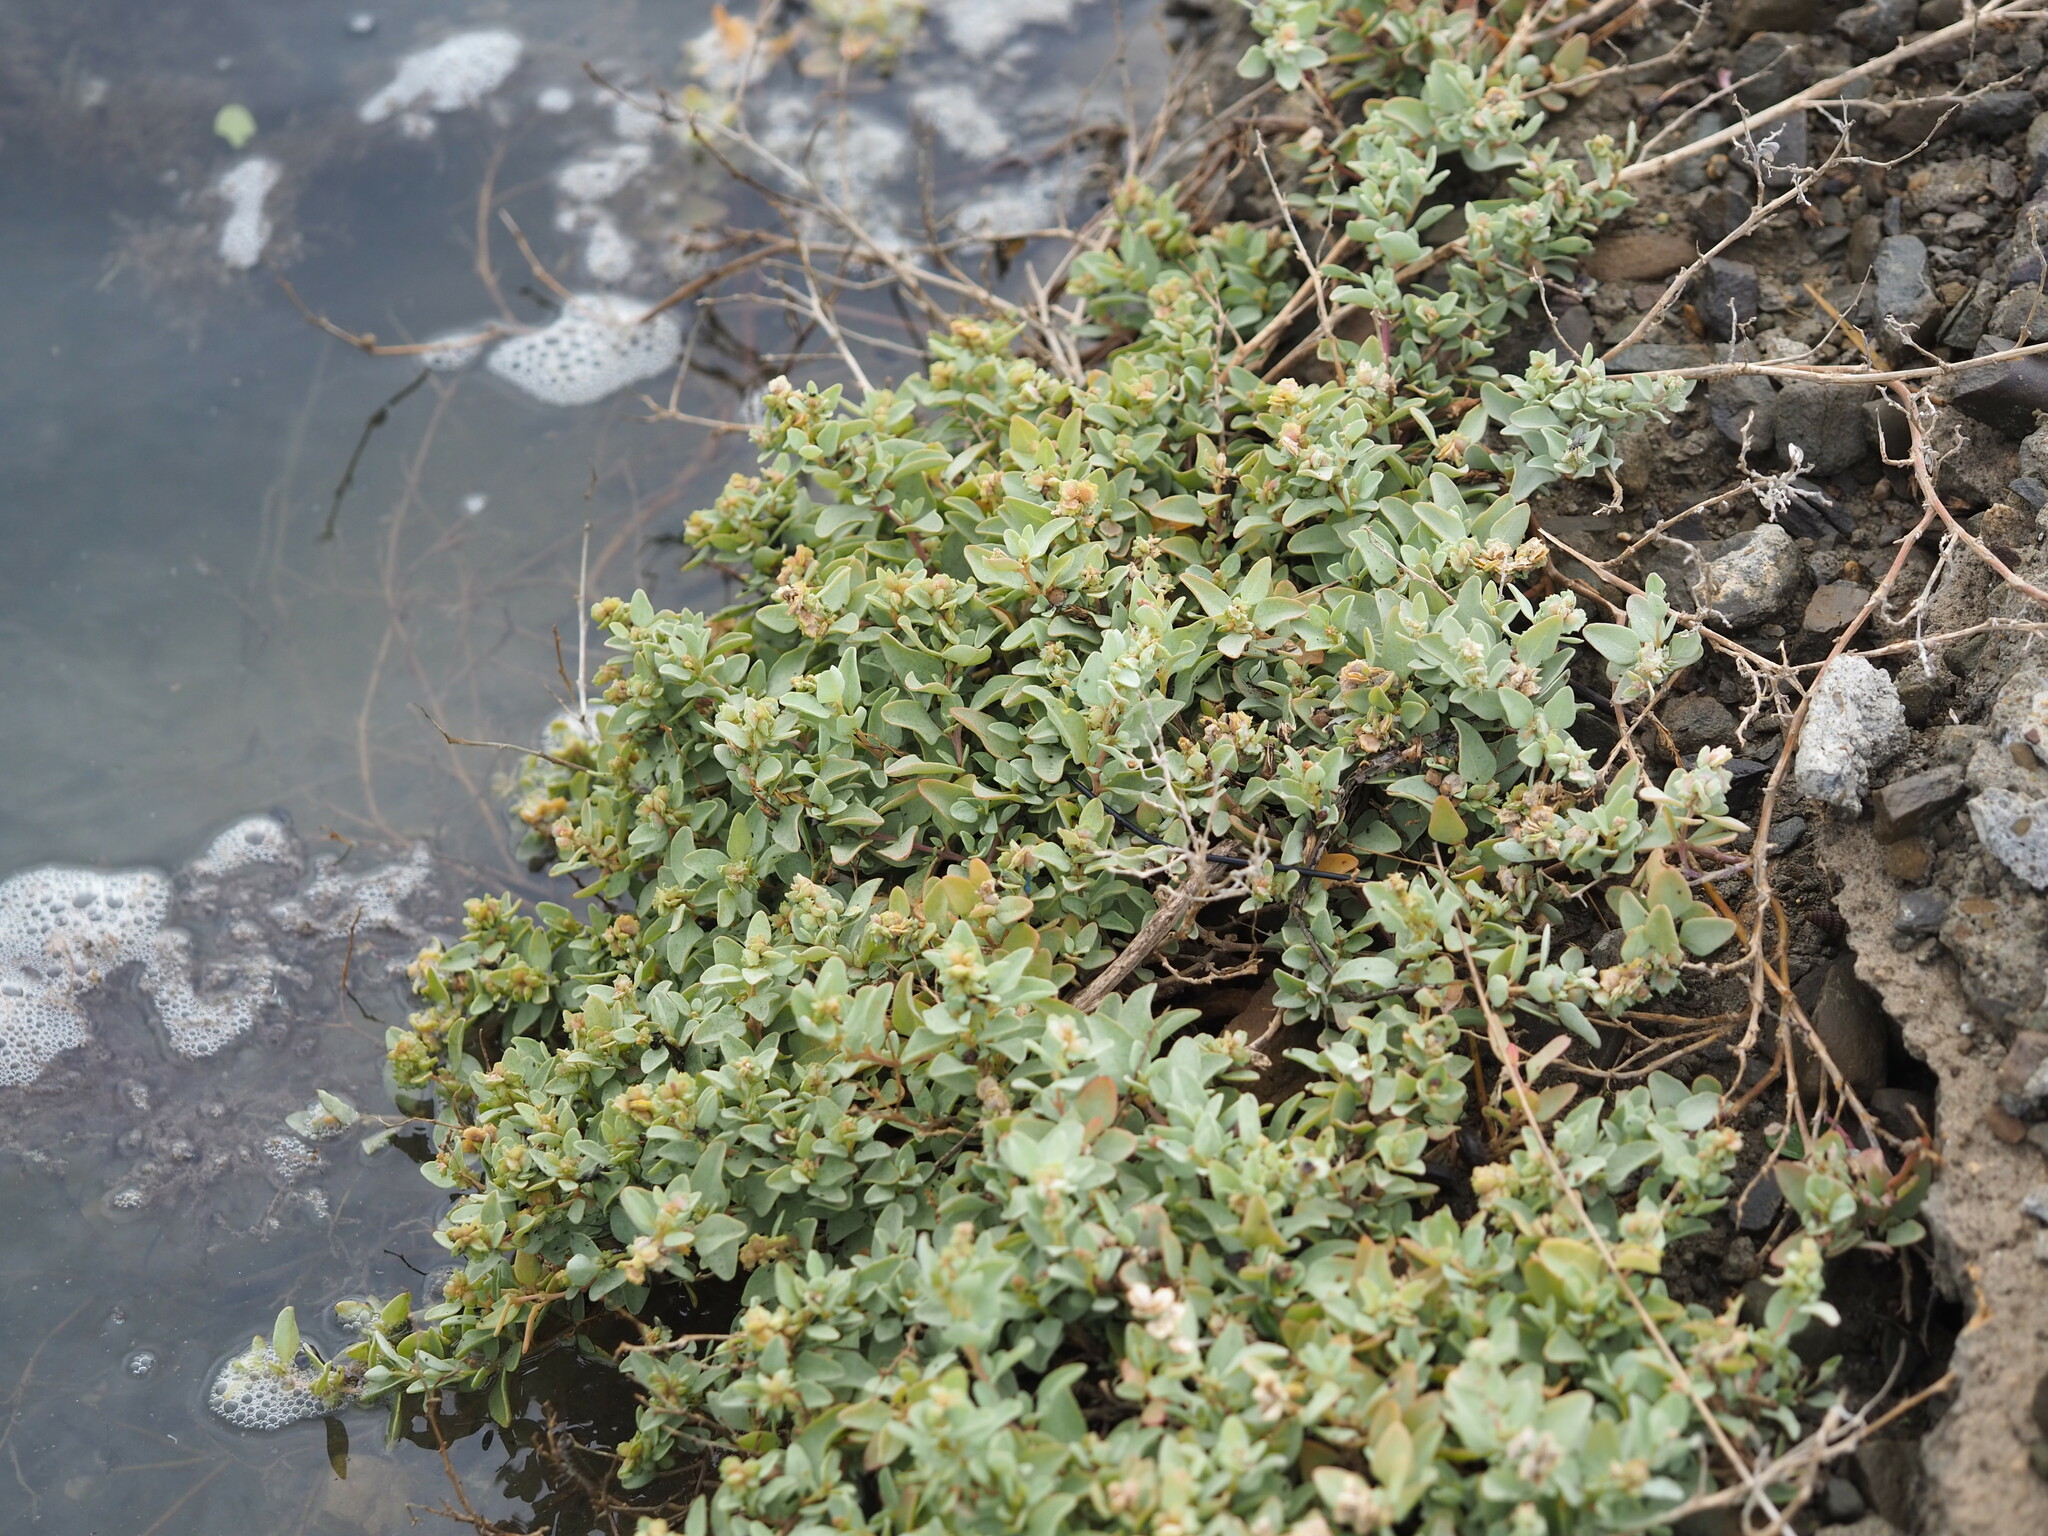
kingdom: Plantae
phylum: Tracheophyta
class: Magnoliopsida
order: Caryophyllales
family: Amaranthaceae
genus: Atriplex
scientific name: Atriplex maximowicziana
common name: Maximowicz's saltbush
